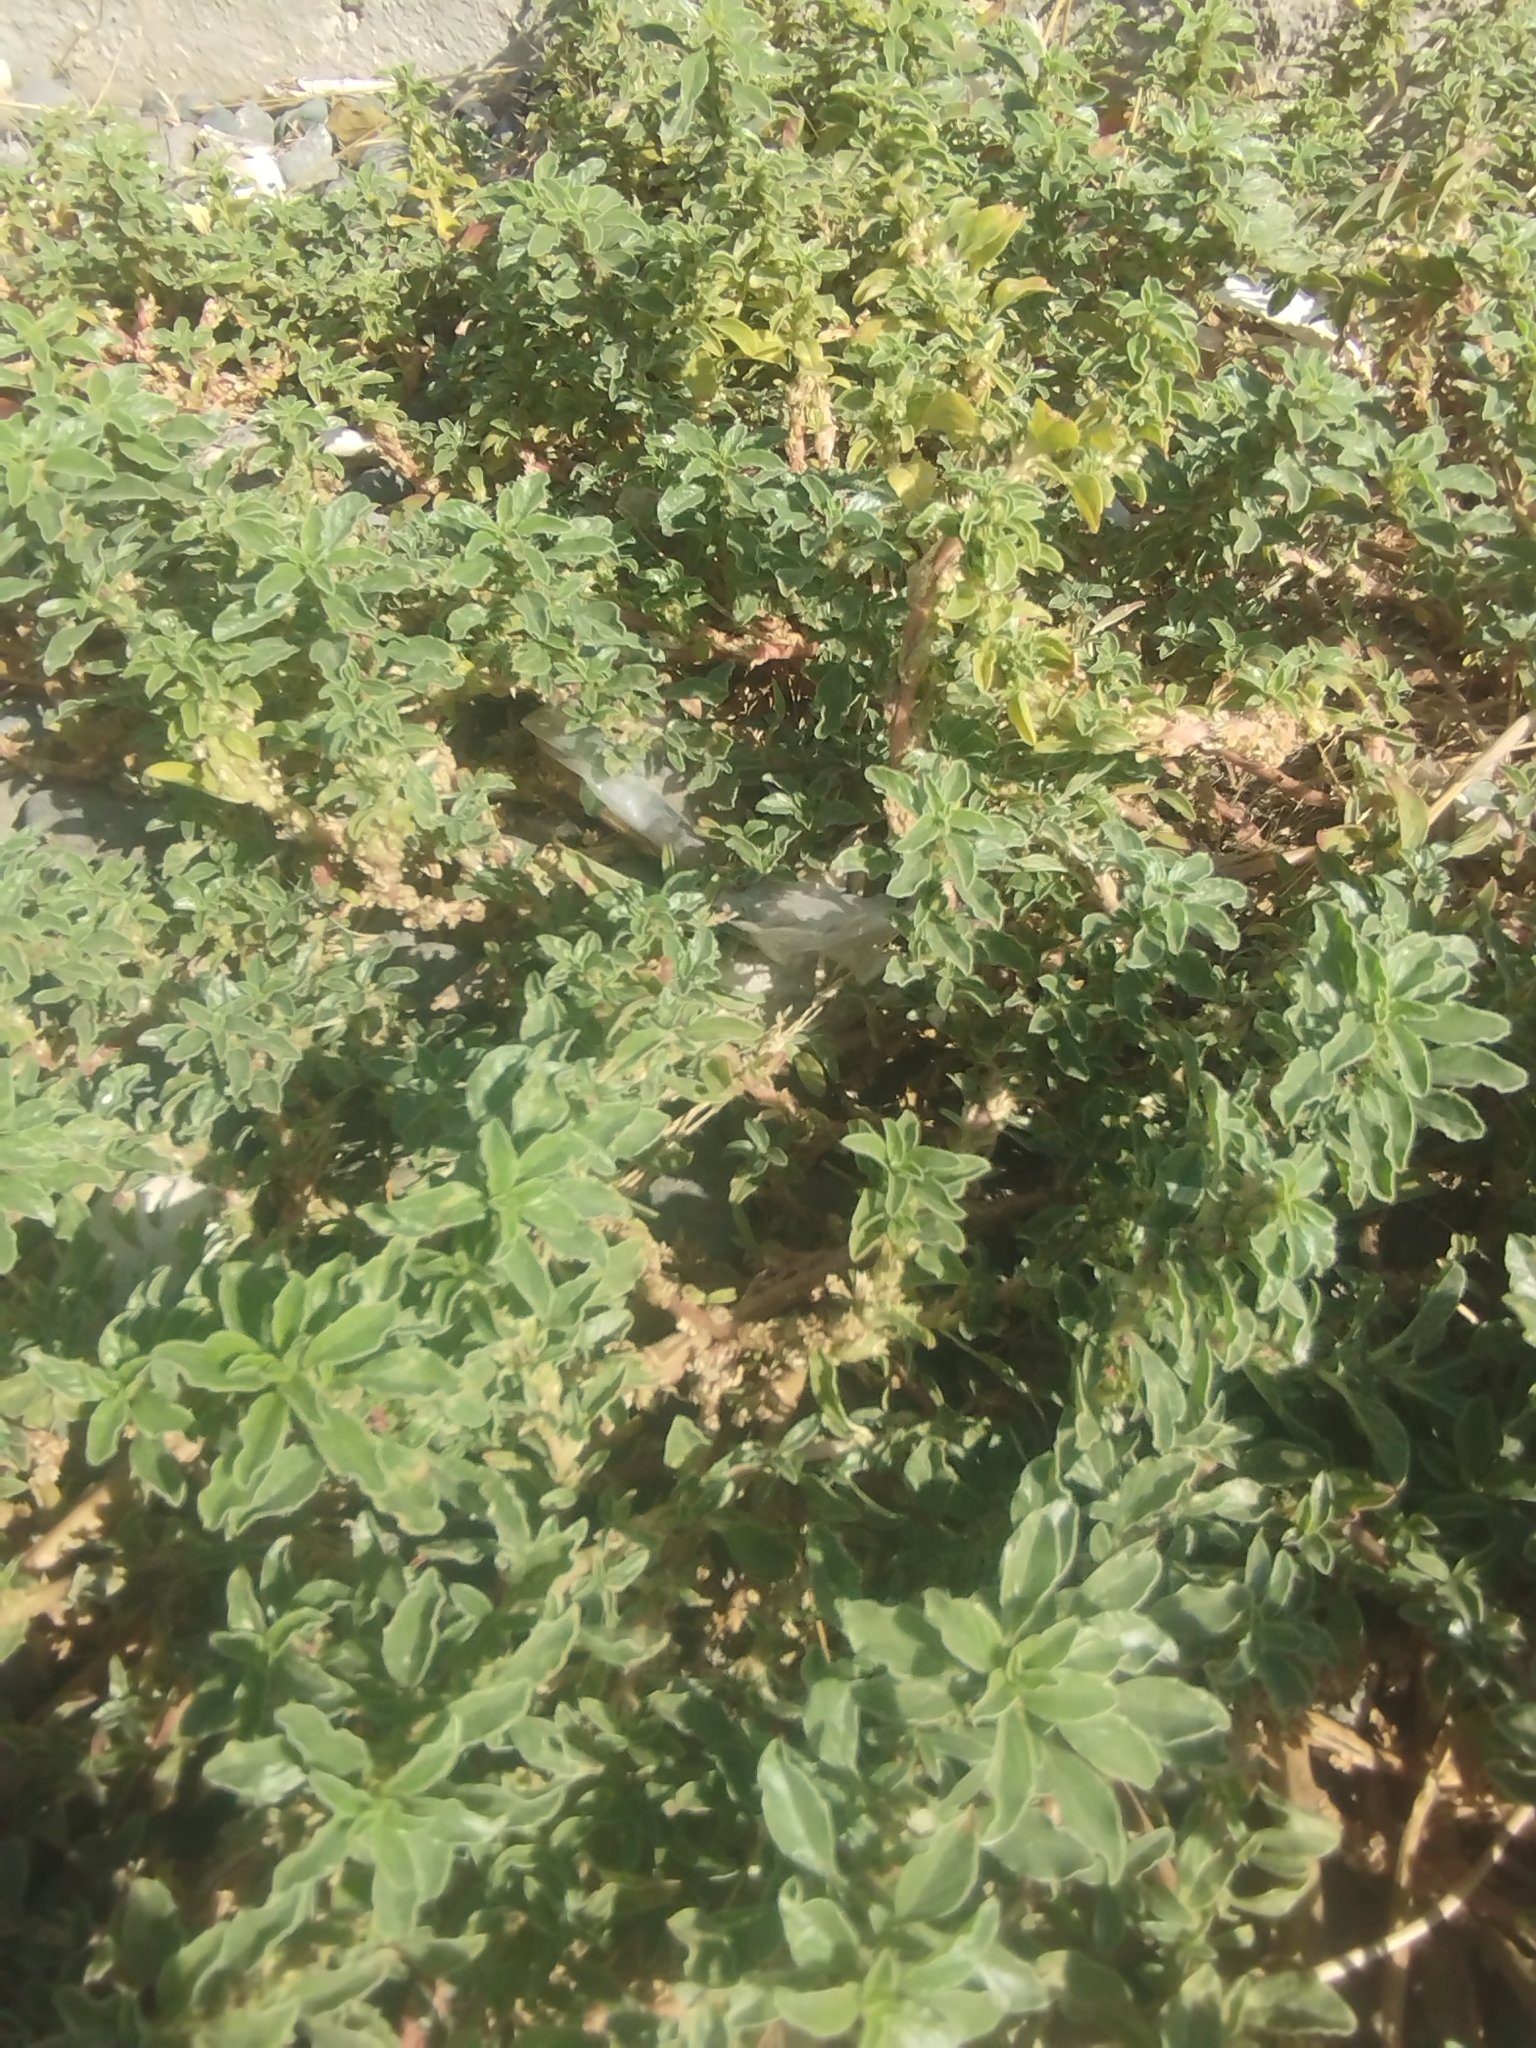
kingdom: Plantae
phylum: Tracheophyta
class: Magnoliopsida
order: Caryophyllales
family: Amaranthaceae
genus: Amaranthus
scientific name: Amaranthus blitoides
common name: Prostrate pigweed
